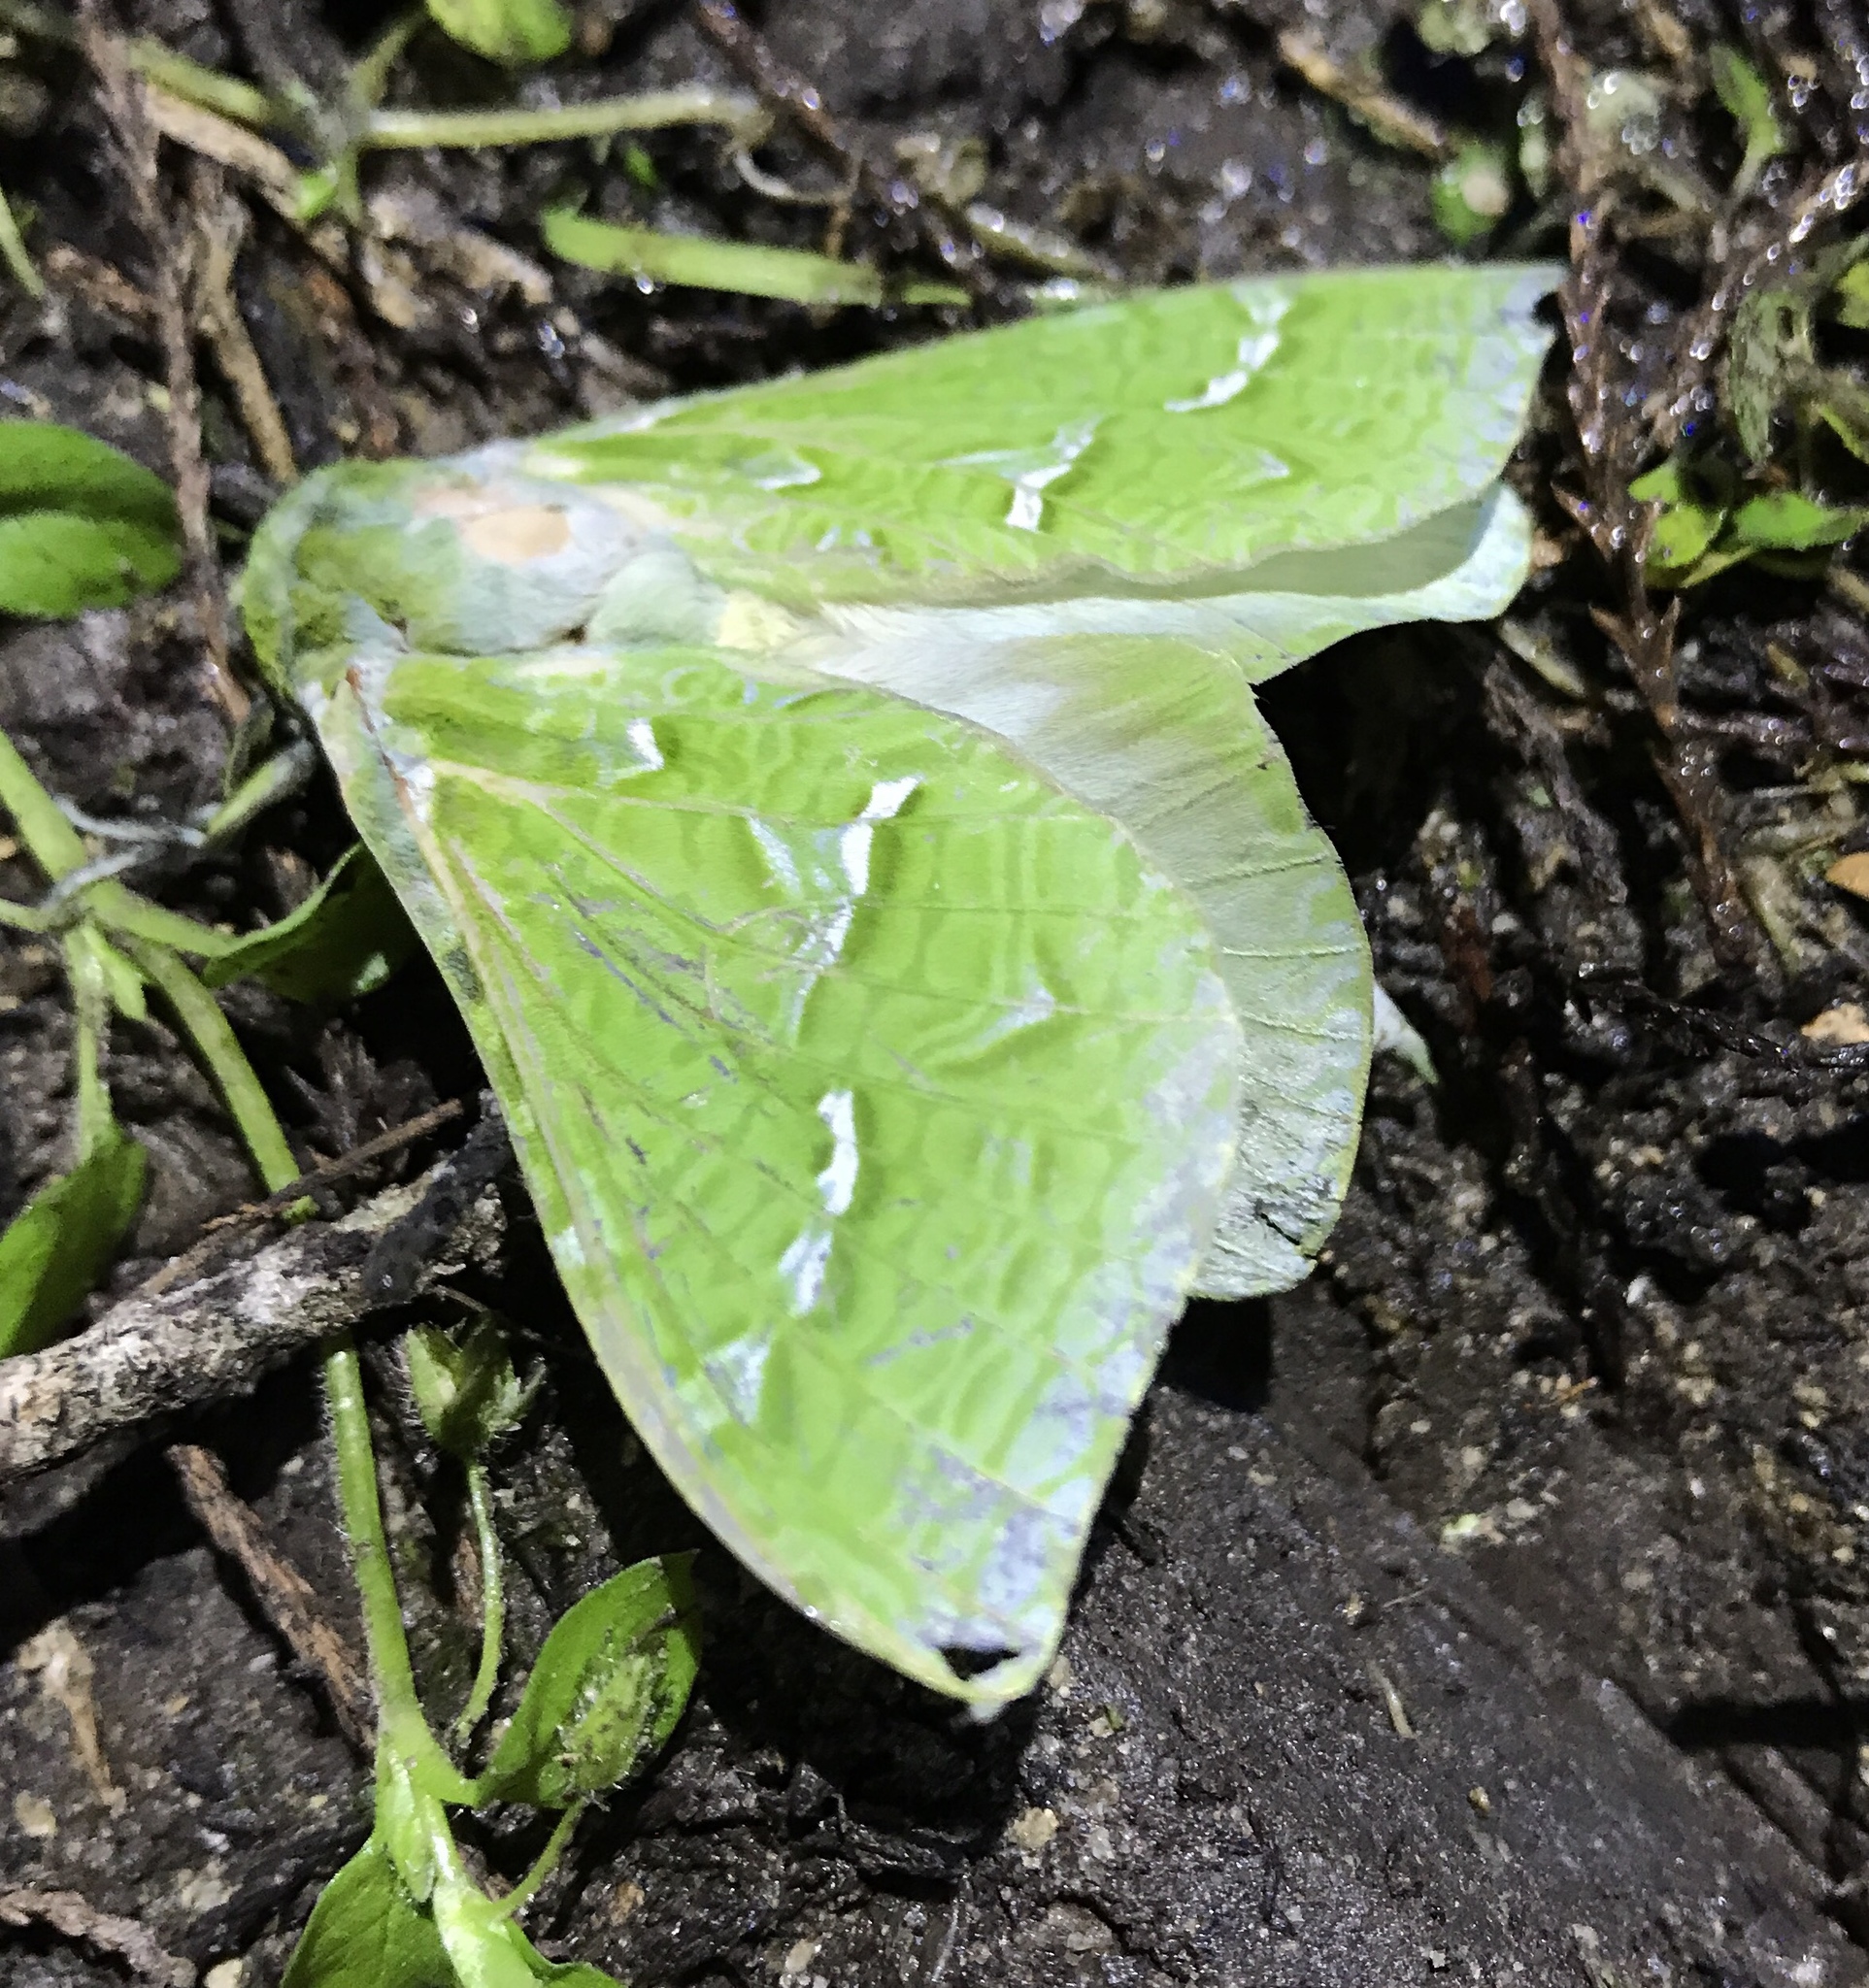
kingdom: Animalia
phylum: Arthropoda
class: Insecta
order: Lepidoptera
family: Hepialidae
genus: Aenetus
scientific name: Aenetus virescens
